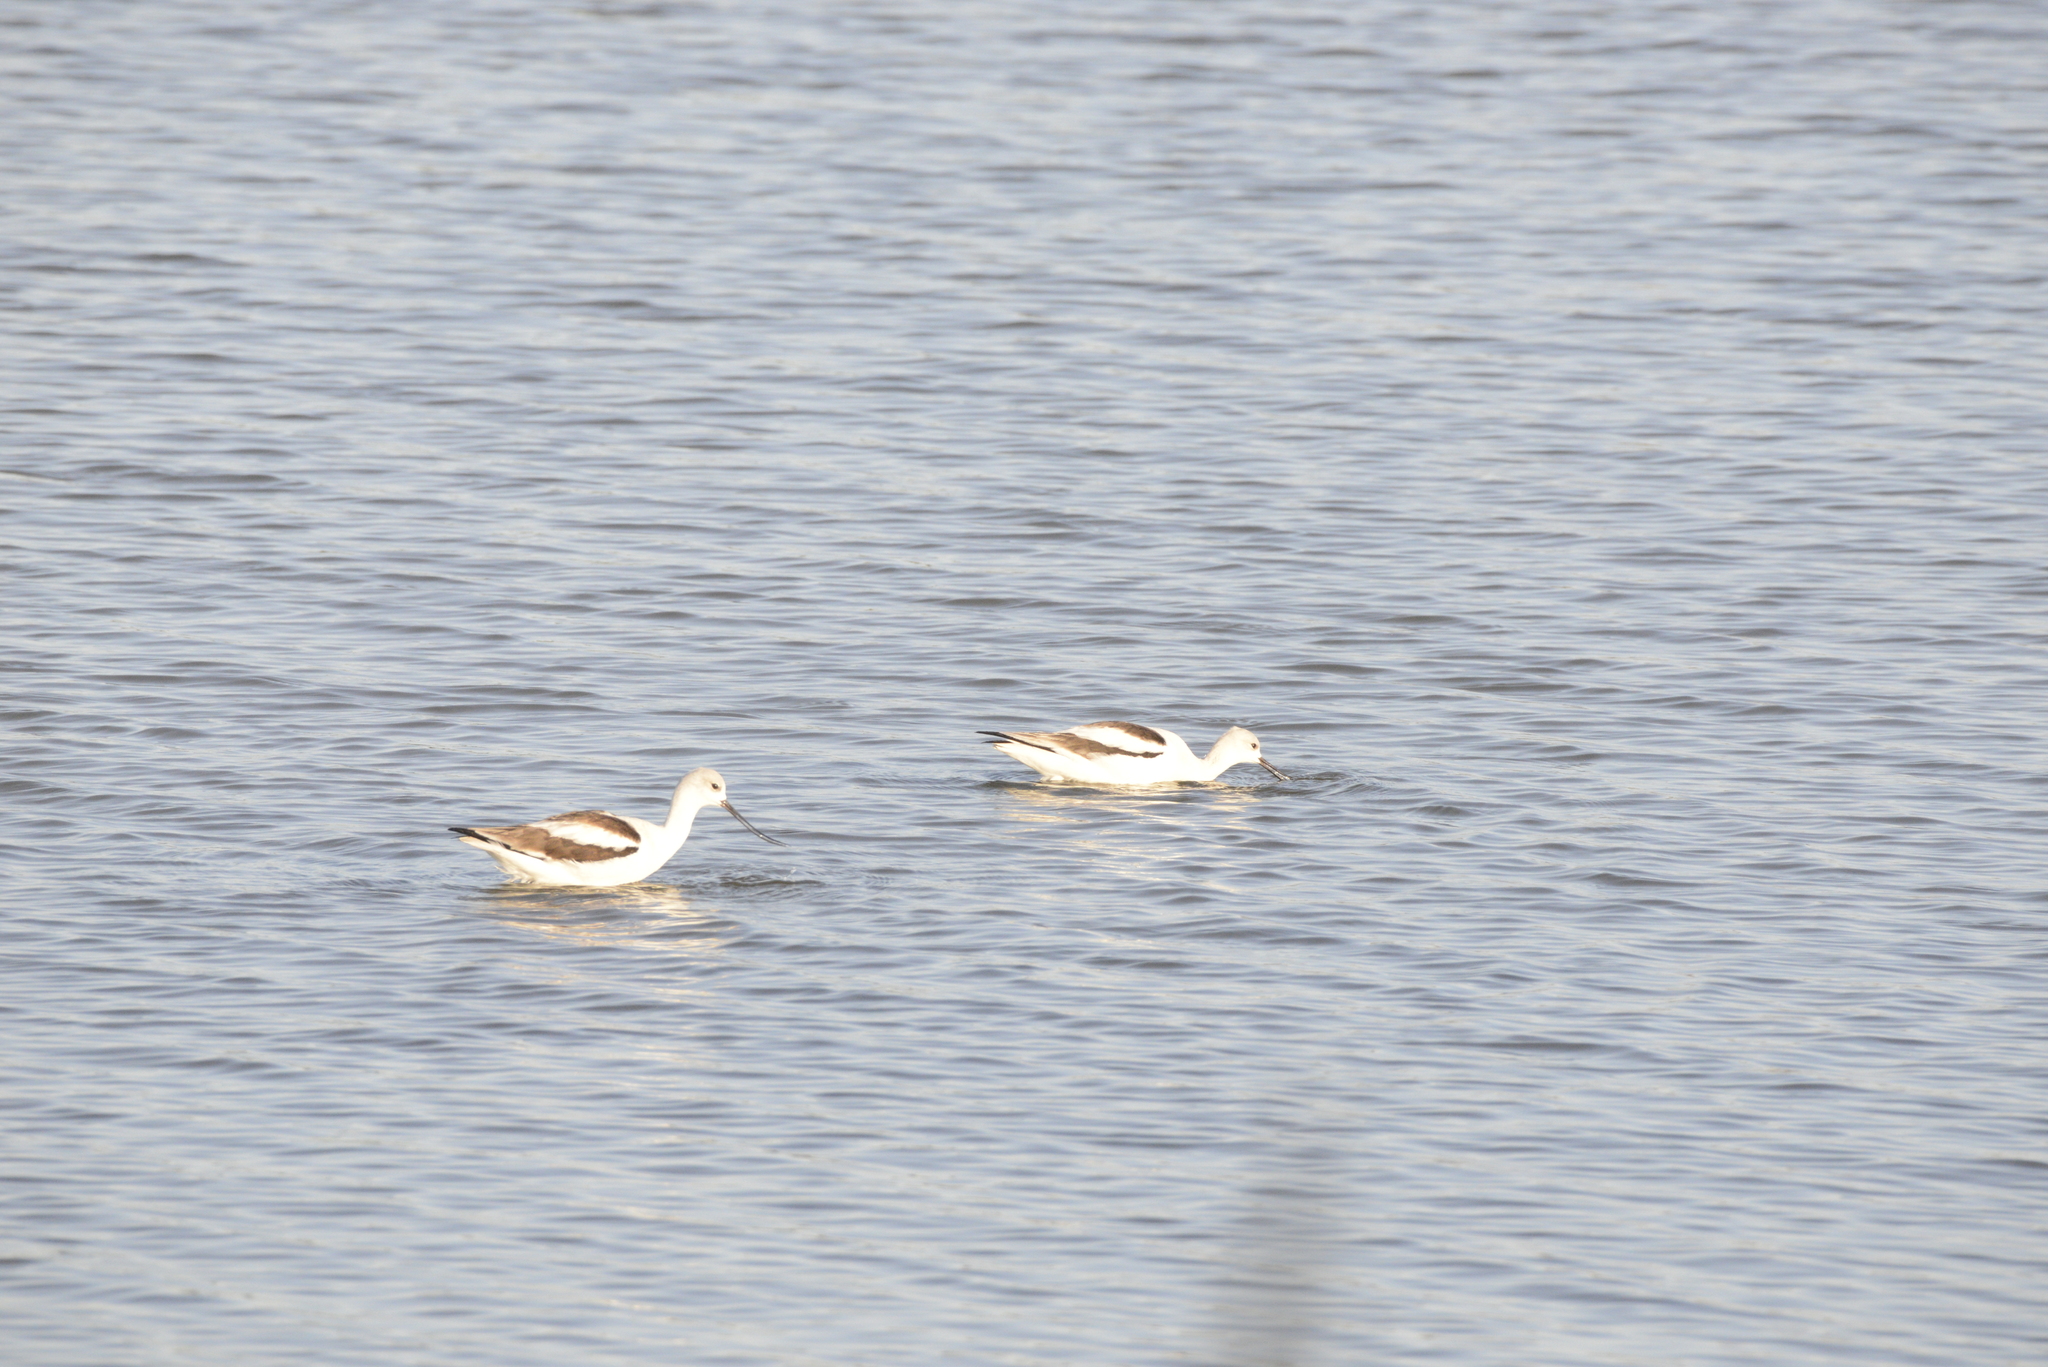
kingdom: Animalia
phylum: Chordata
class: Aves
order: Charadriiformes
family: Recurvirostridae
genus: Recurvirostra
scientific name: Recurvirostra americana
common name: American avocet
